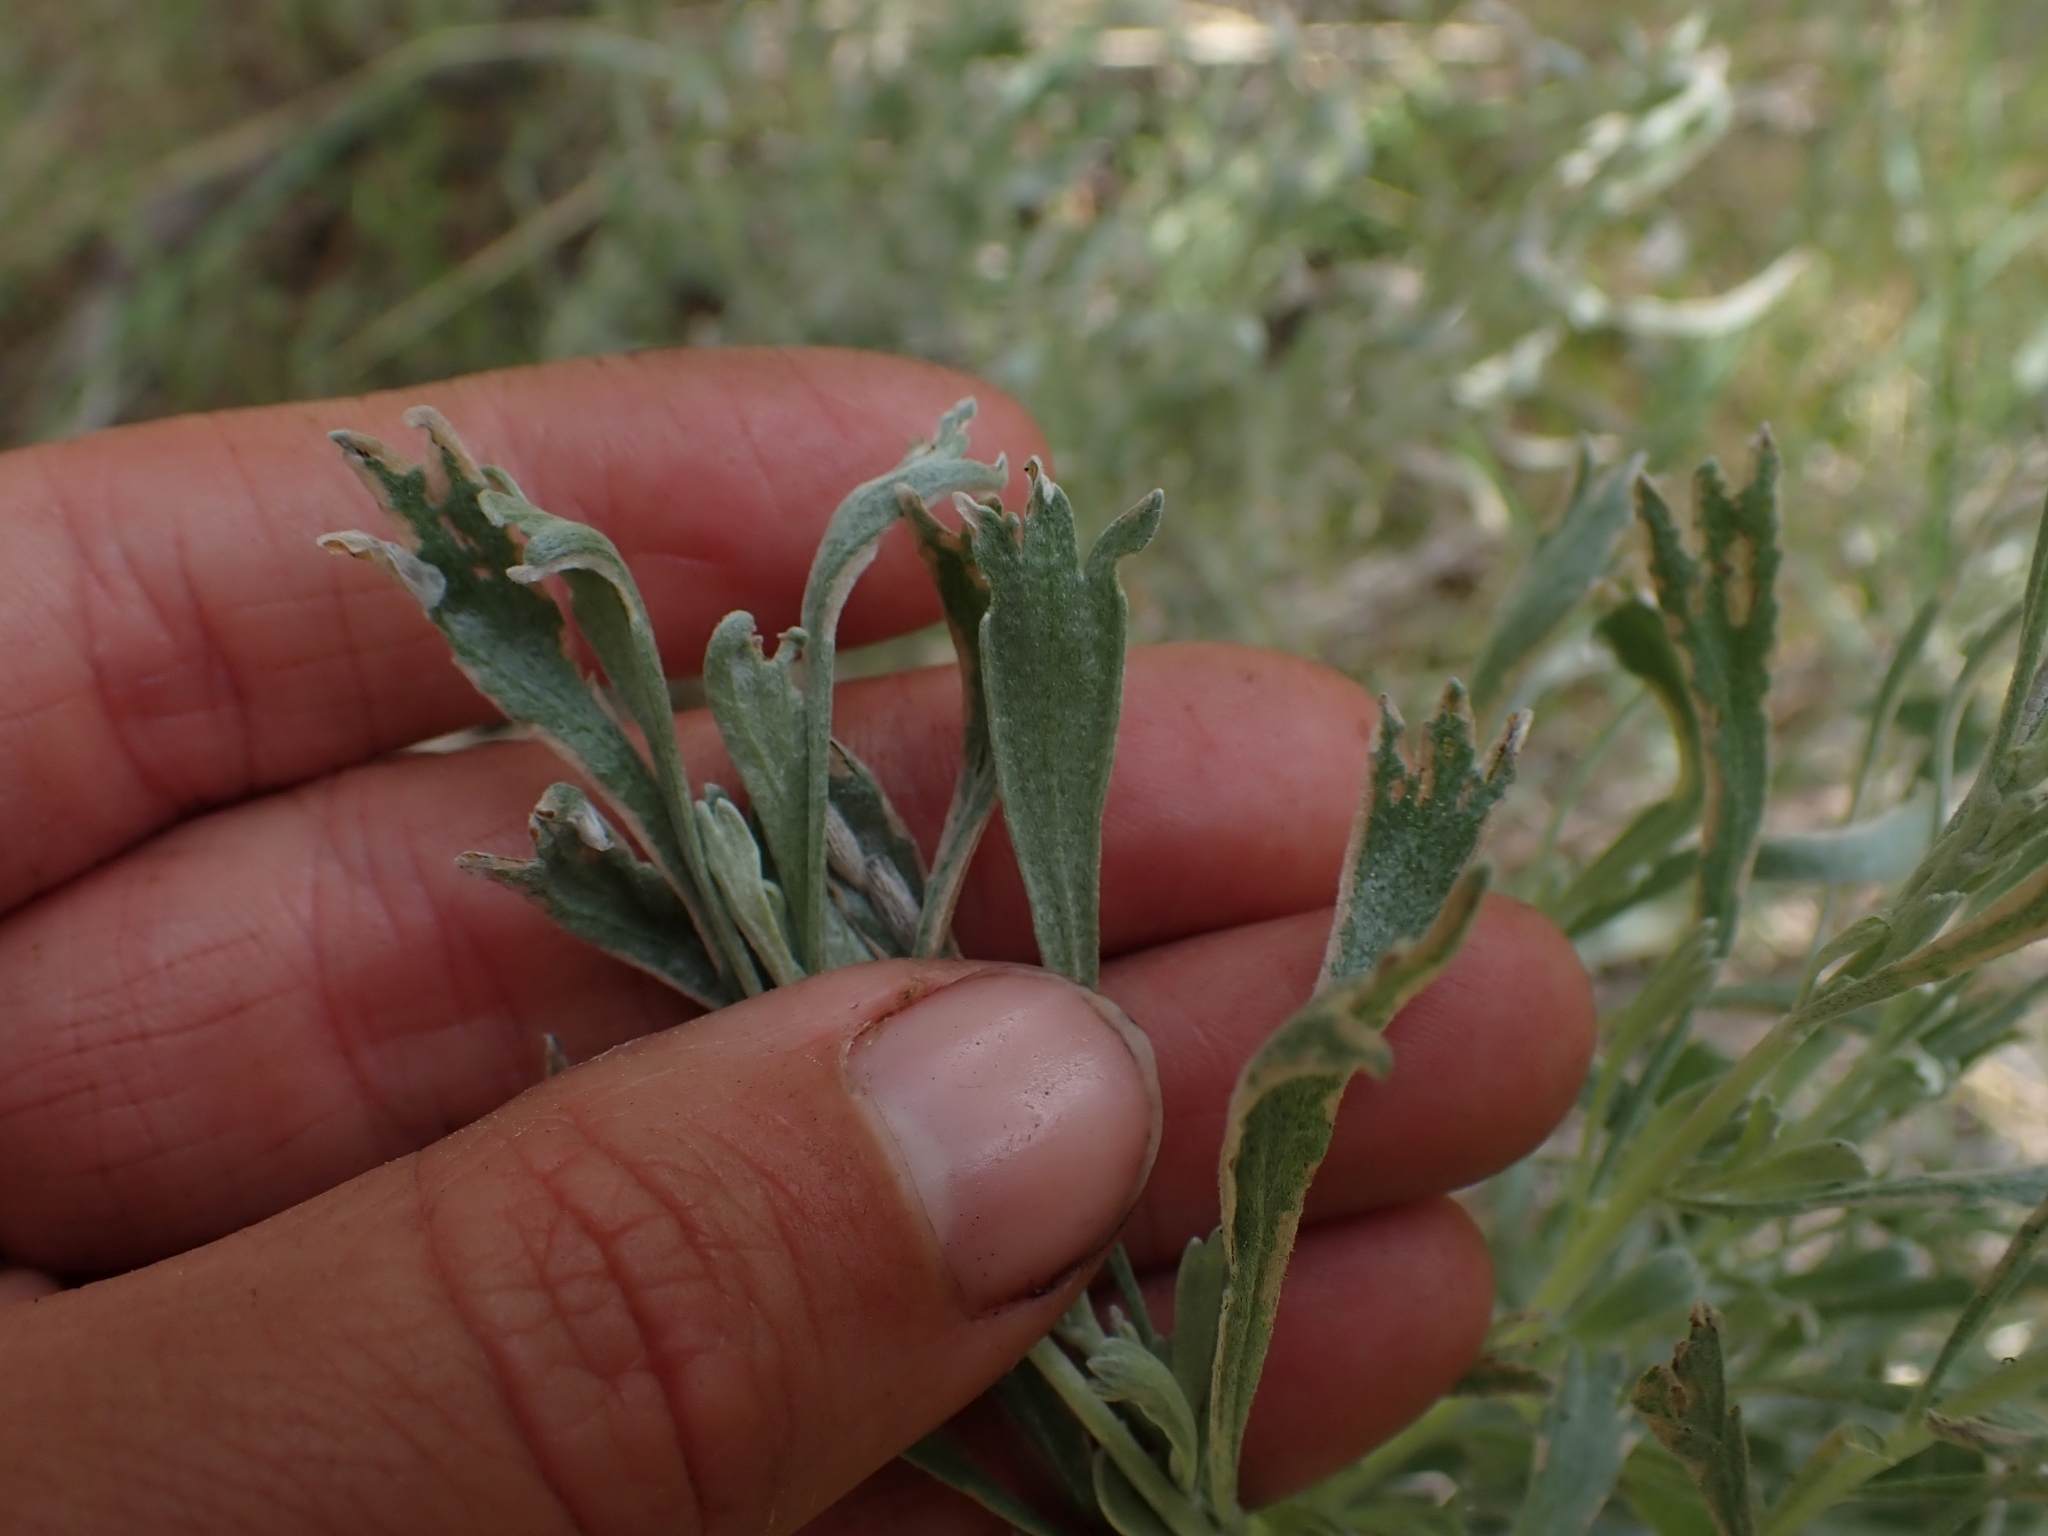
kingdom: Plantae
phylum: Tracheophyta
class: Magnoliopsida
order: Asterales
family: Asteraceae
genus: Artemisia
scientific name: Artemisia tridentata
